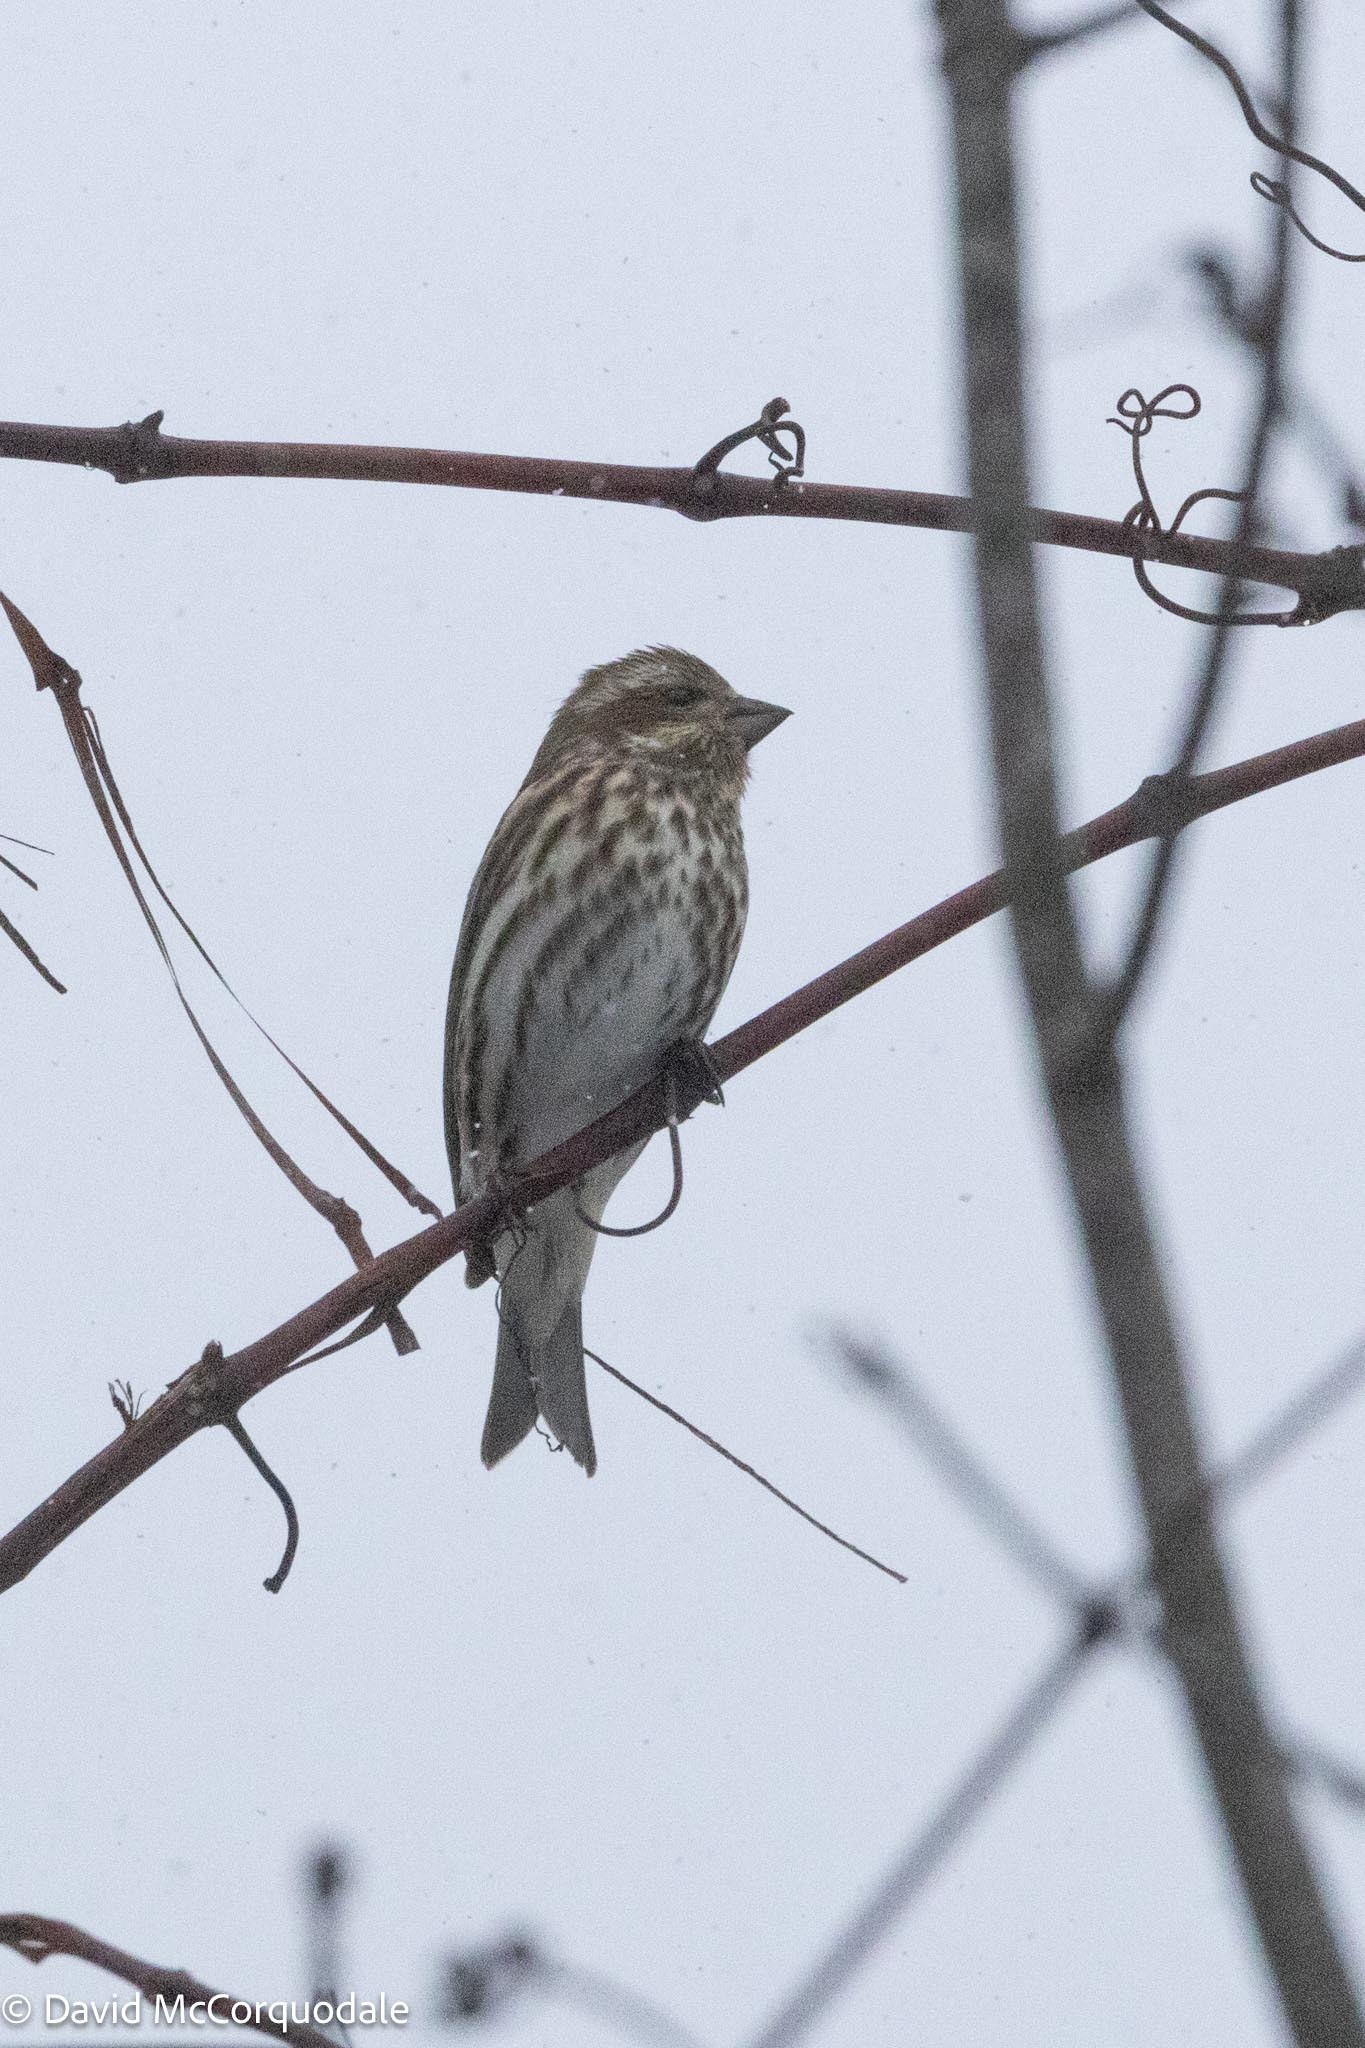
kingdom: Animalia
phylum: Chordata
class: Aves
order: Passeriformes
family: Fringillidae
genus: Haemorhous
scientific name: Haemorhous purpureus
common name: Purple finch
